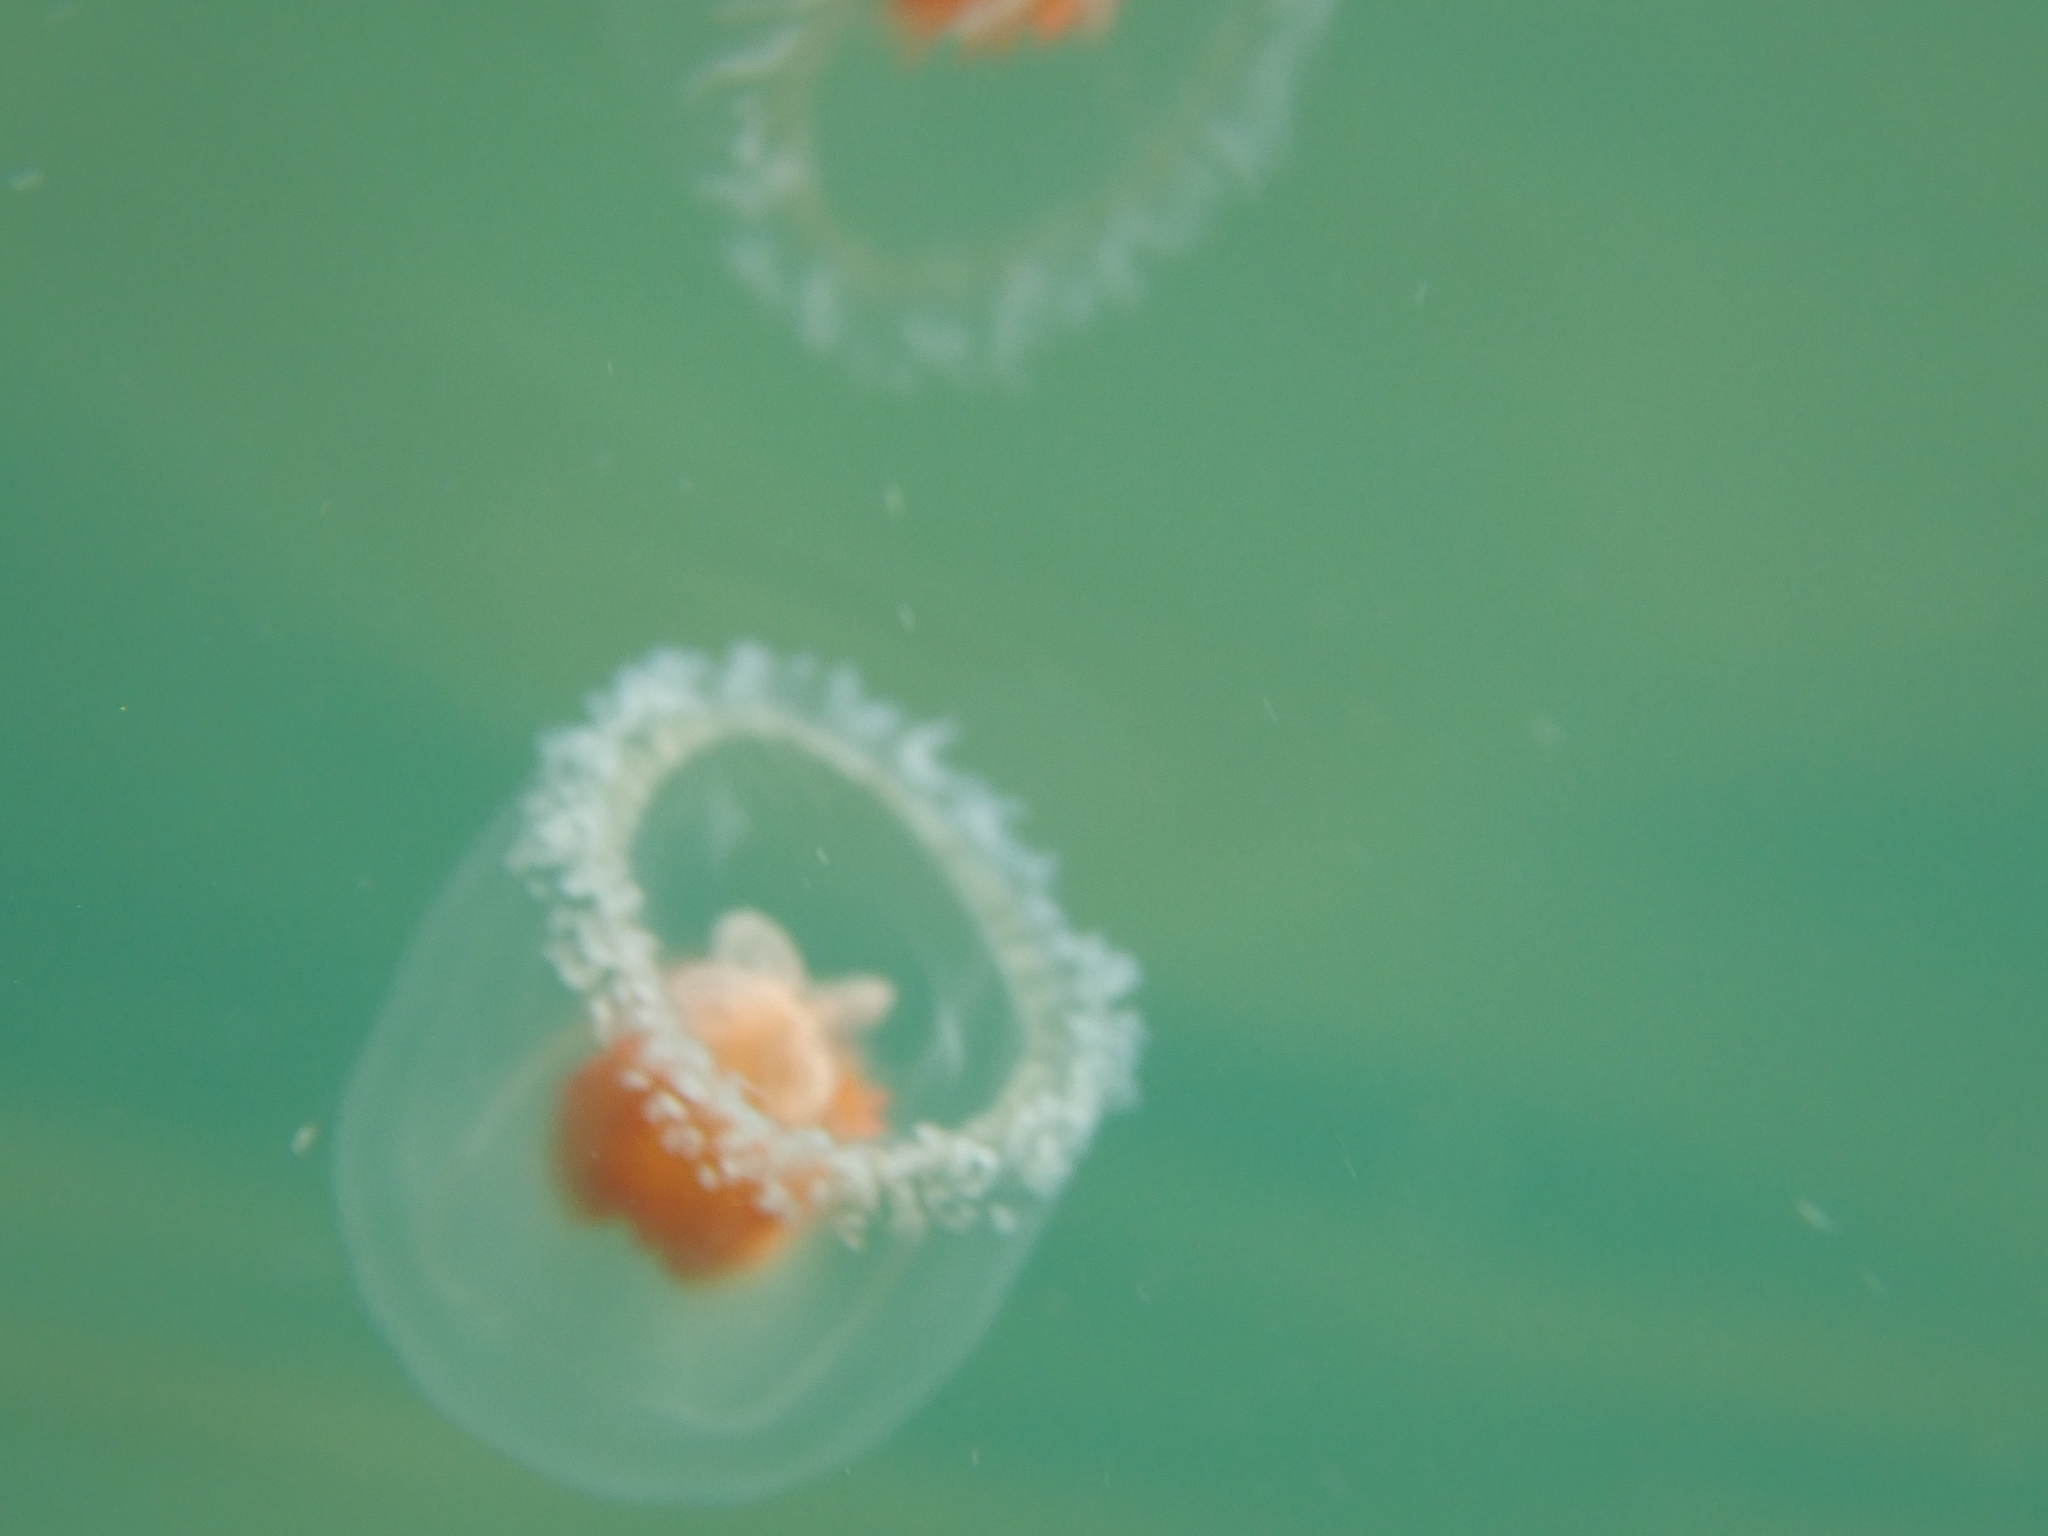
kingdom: Animalia
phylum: Cnidaria
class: Hydrozoa
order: Anthoathecata
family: Oceaniidae
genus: Turritopsis
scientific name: Turritopsis rubra
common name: Crimson jelly
